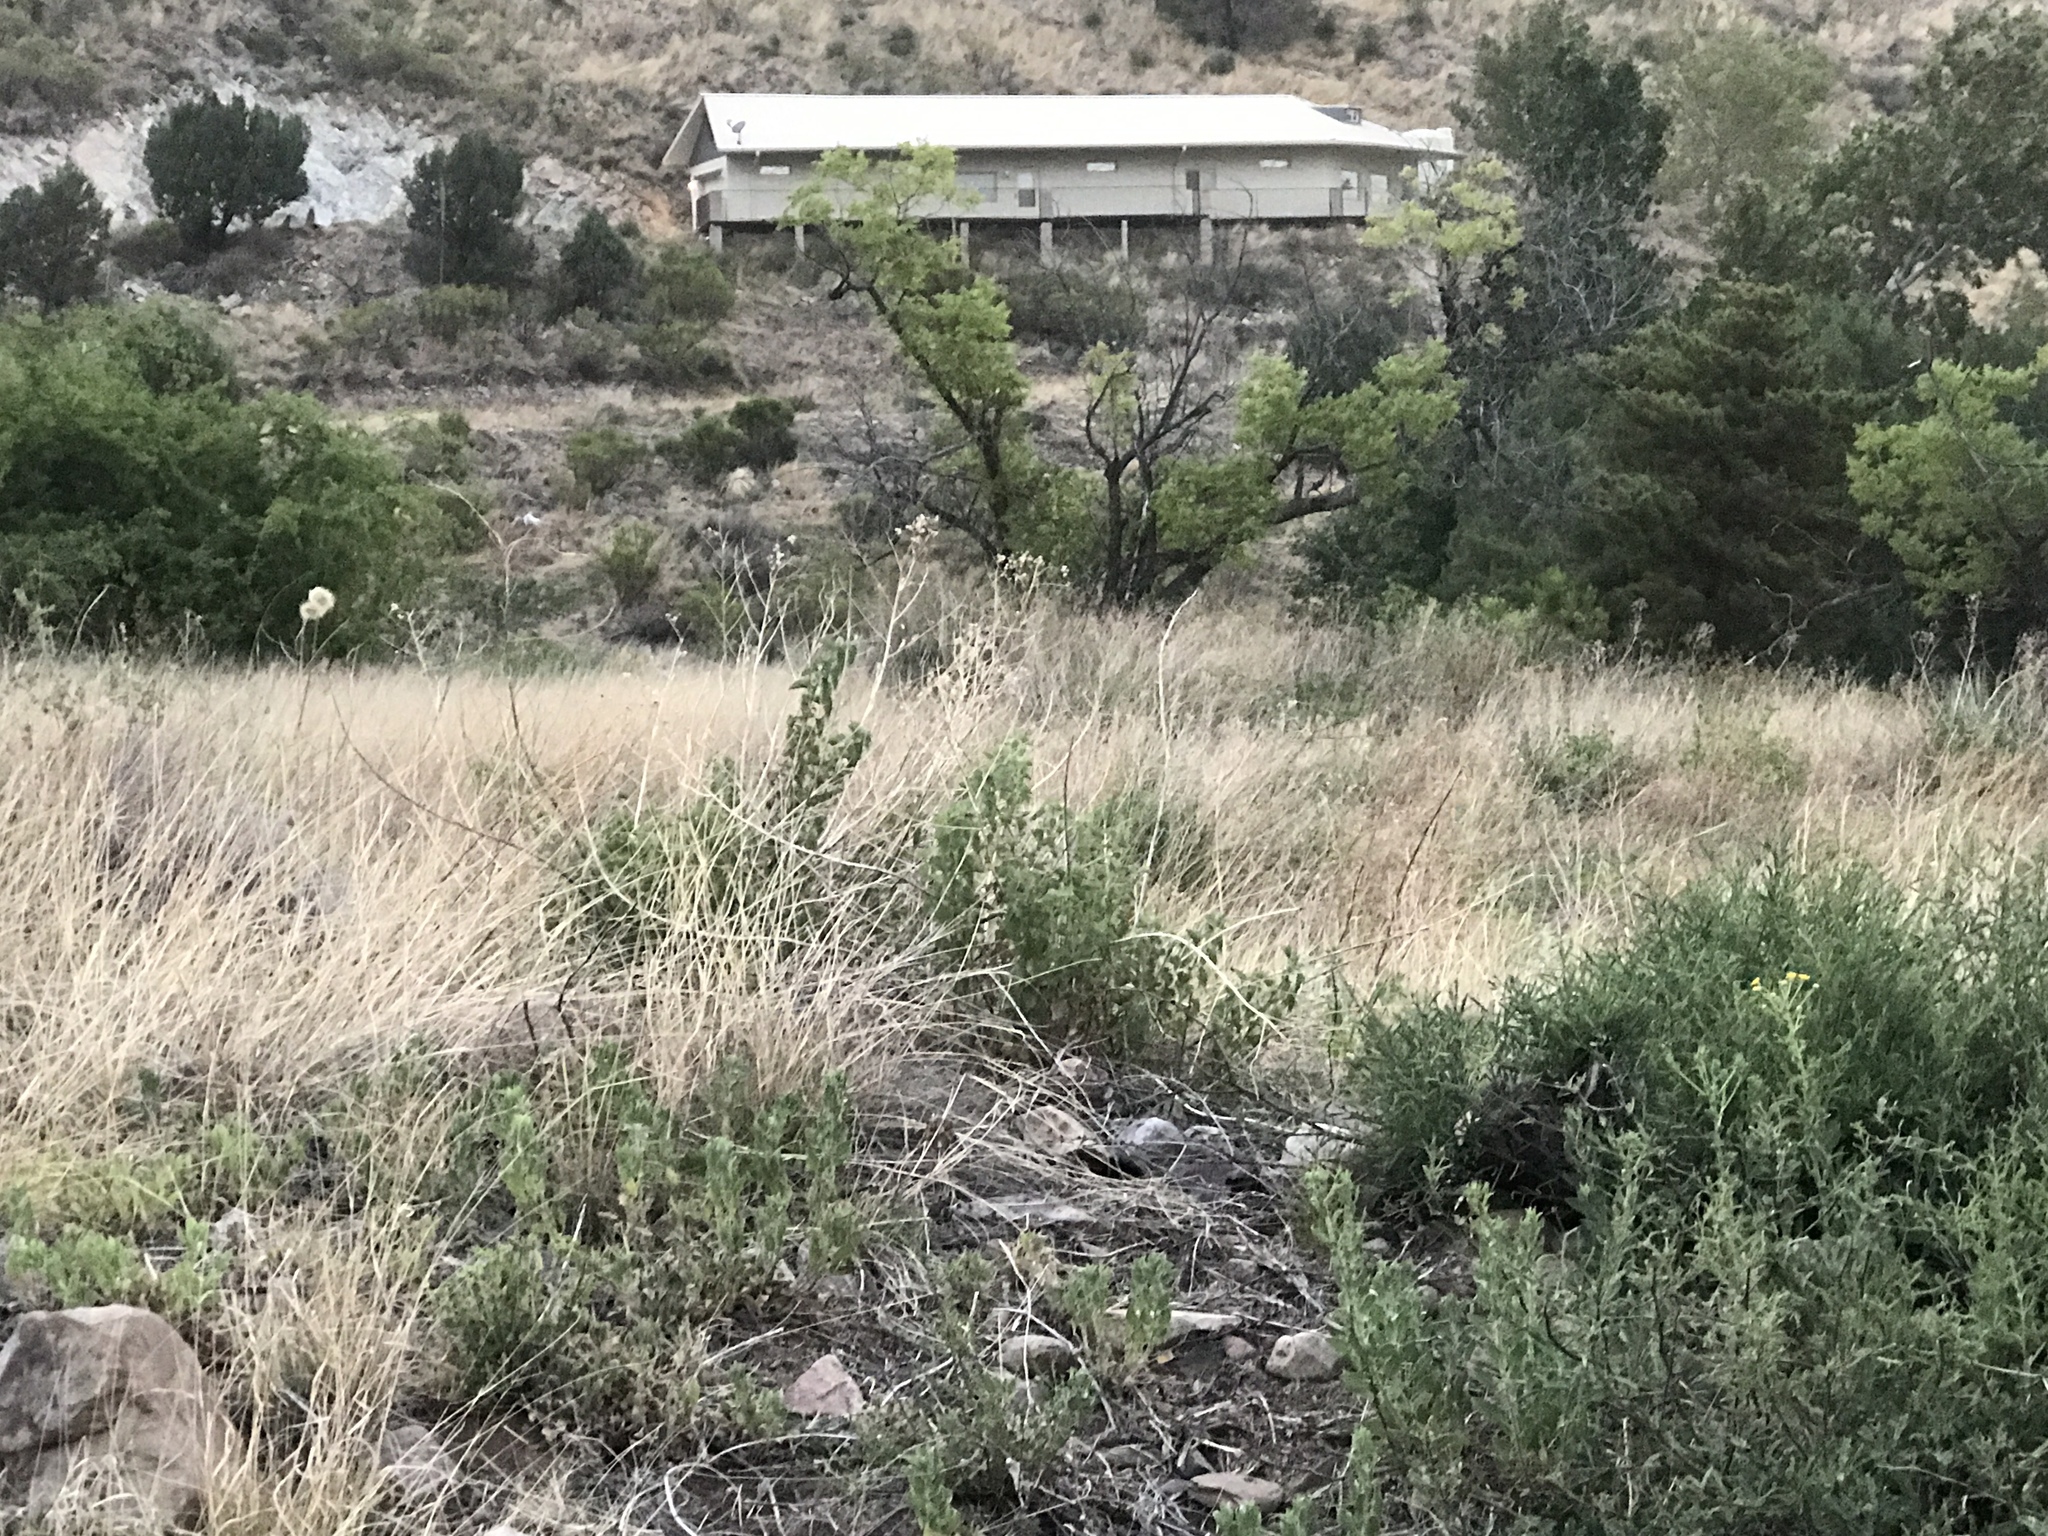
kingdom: Animalia
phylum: Chordata
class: Mammalia
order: Artiodactyla
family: Cervidae
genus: Odocoileus
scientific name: Odocoileus virginianus
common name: White-tailed deer
